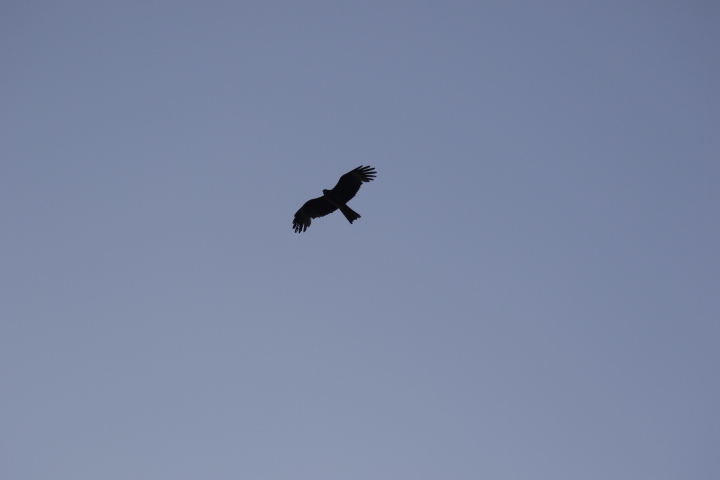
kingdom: Animalia
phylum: Chordata
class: Aves
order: Accipitriformes
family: Accipitridae
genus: Milvus
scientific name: Milvus migrans
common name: Black kite
